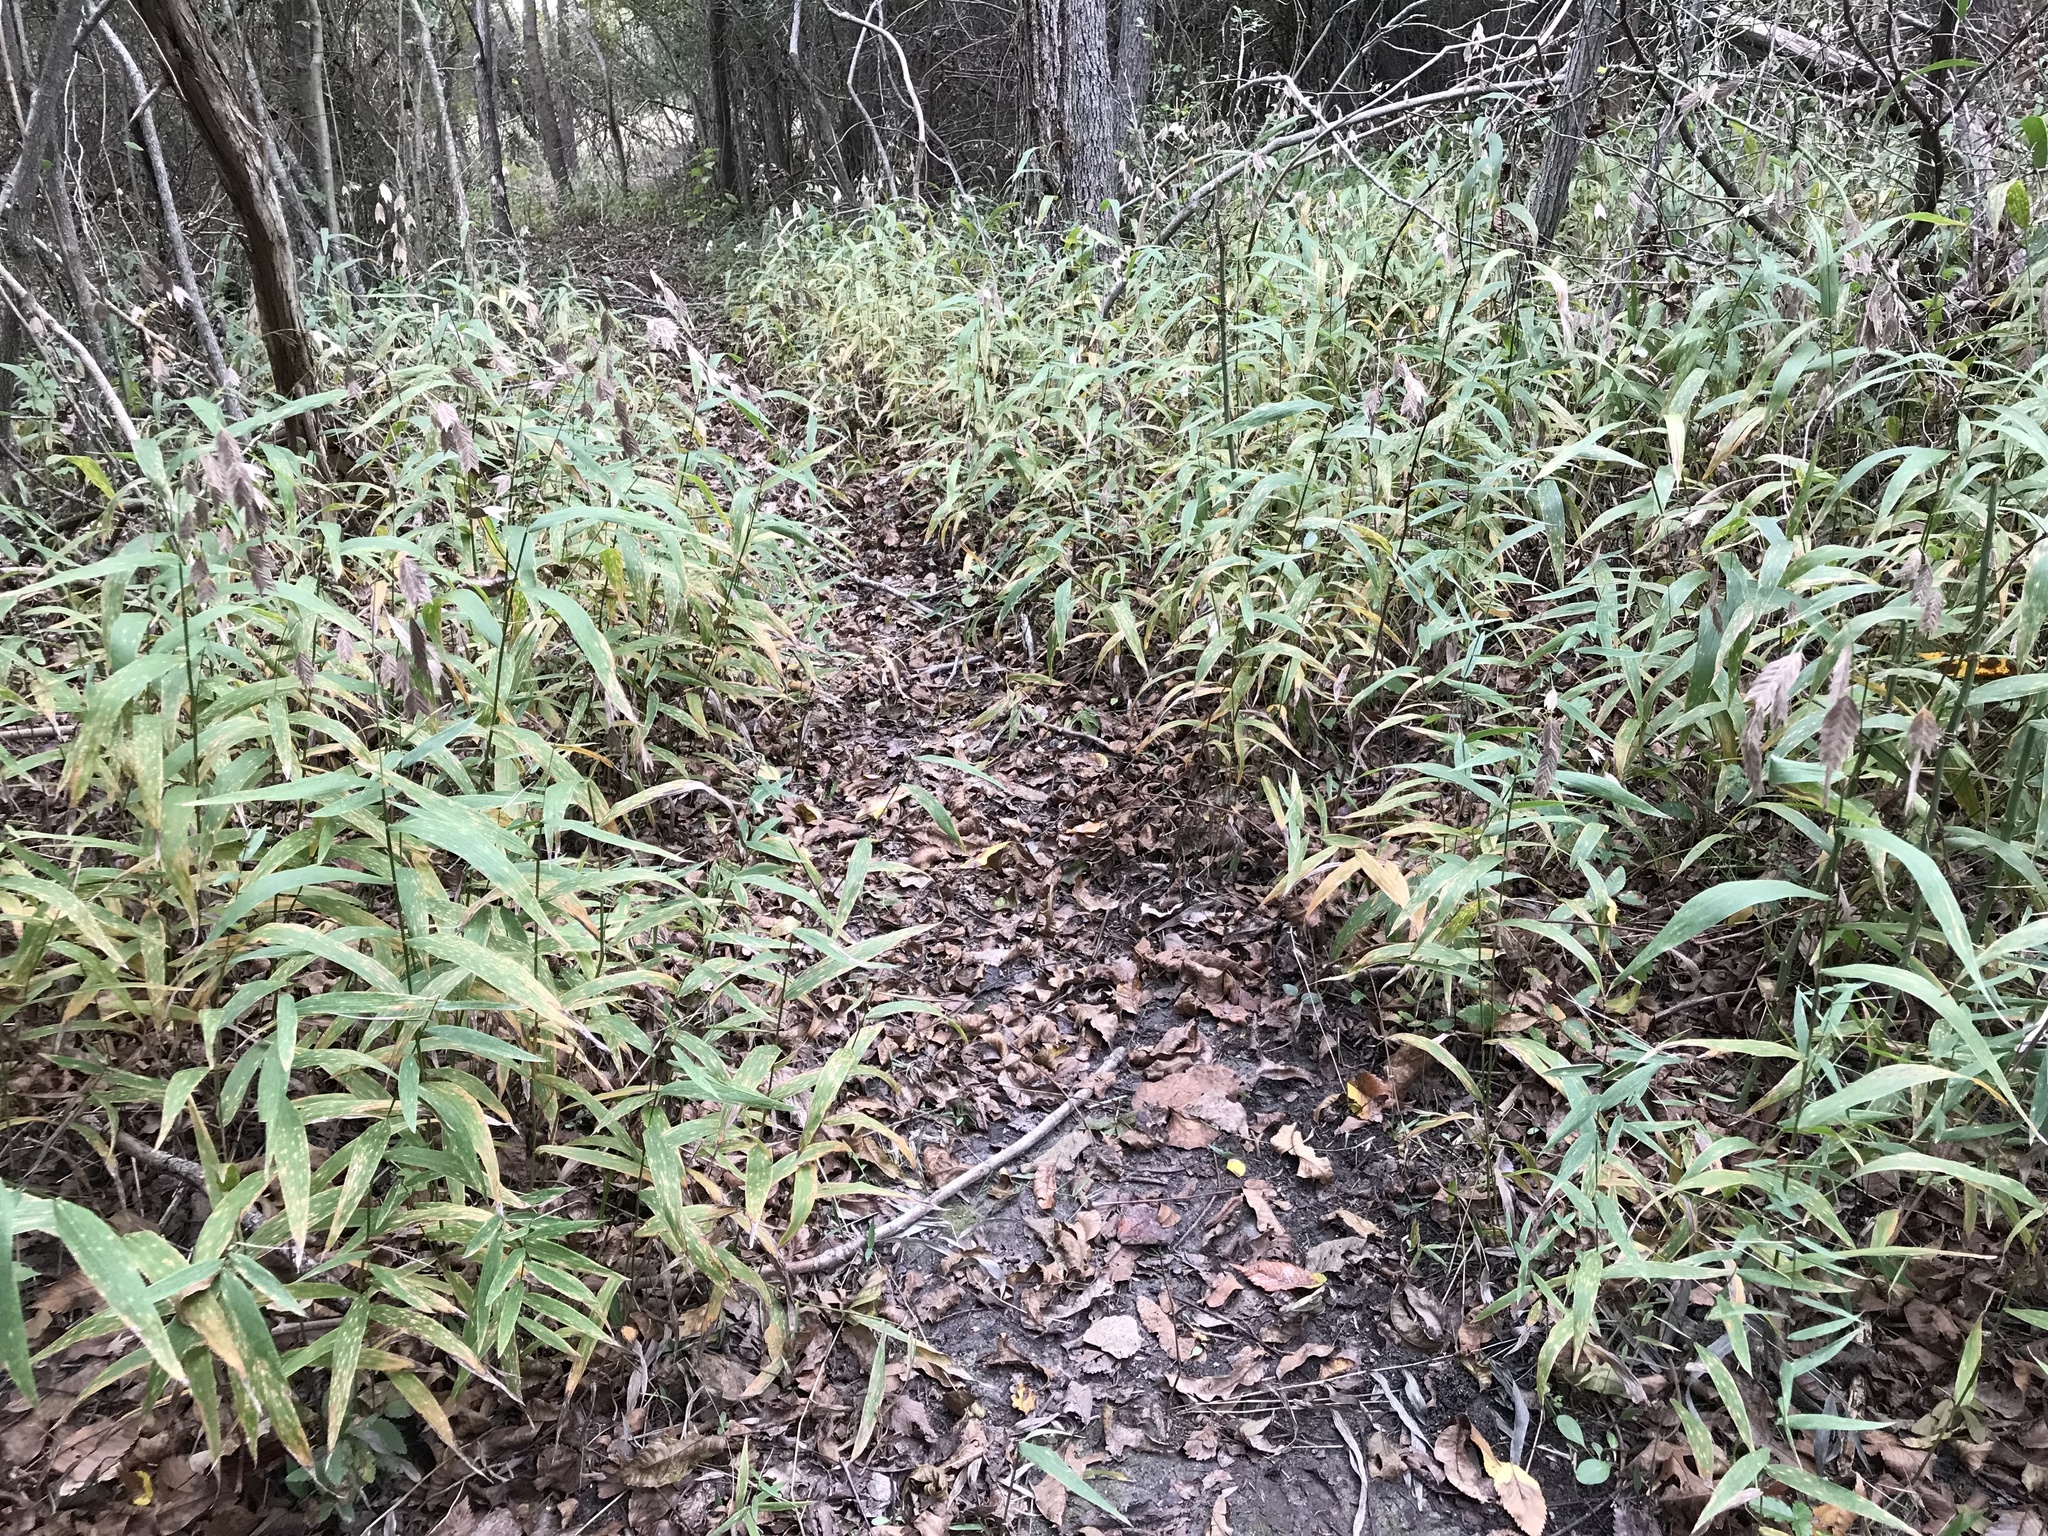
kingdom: Plantae
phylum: Tracheophyta
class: Liliopsida
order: Poales
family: Poaceae
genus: Chasmanthium
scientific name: Chasmanthium latifolium
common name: Broad-leaved chasmanthium
